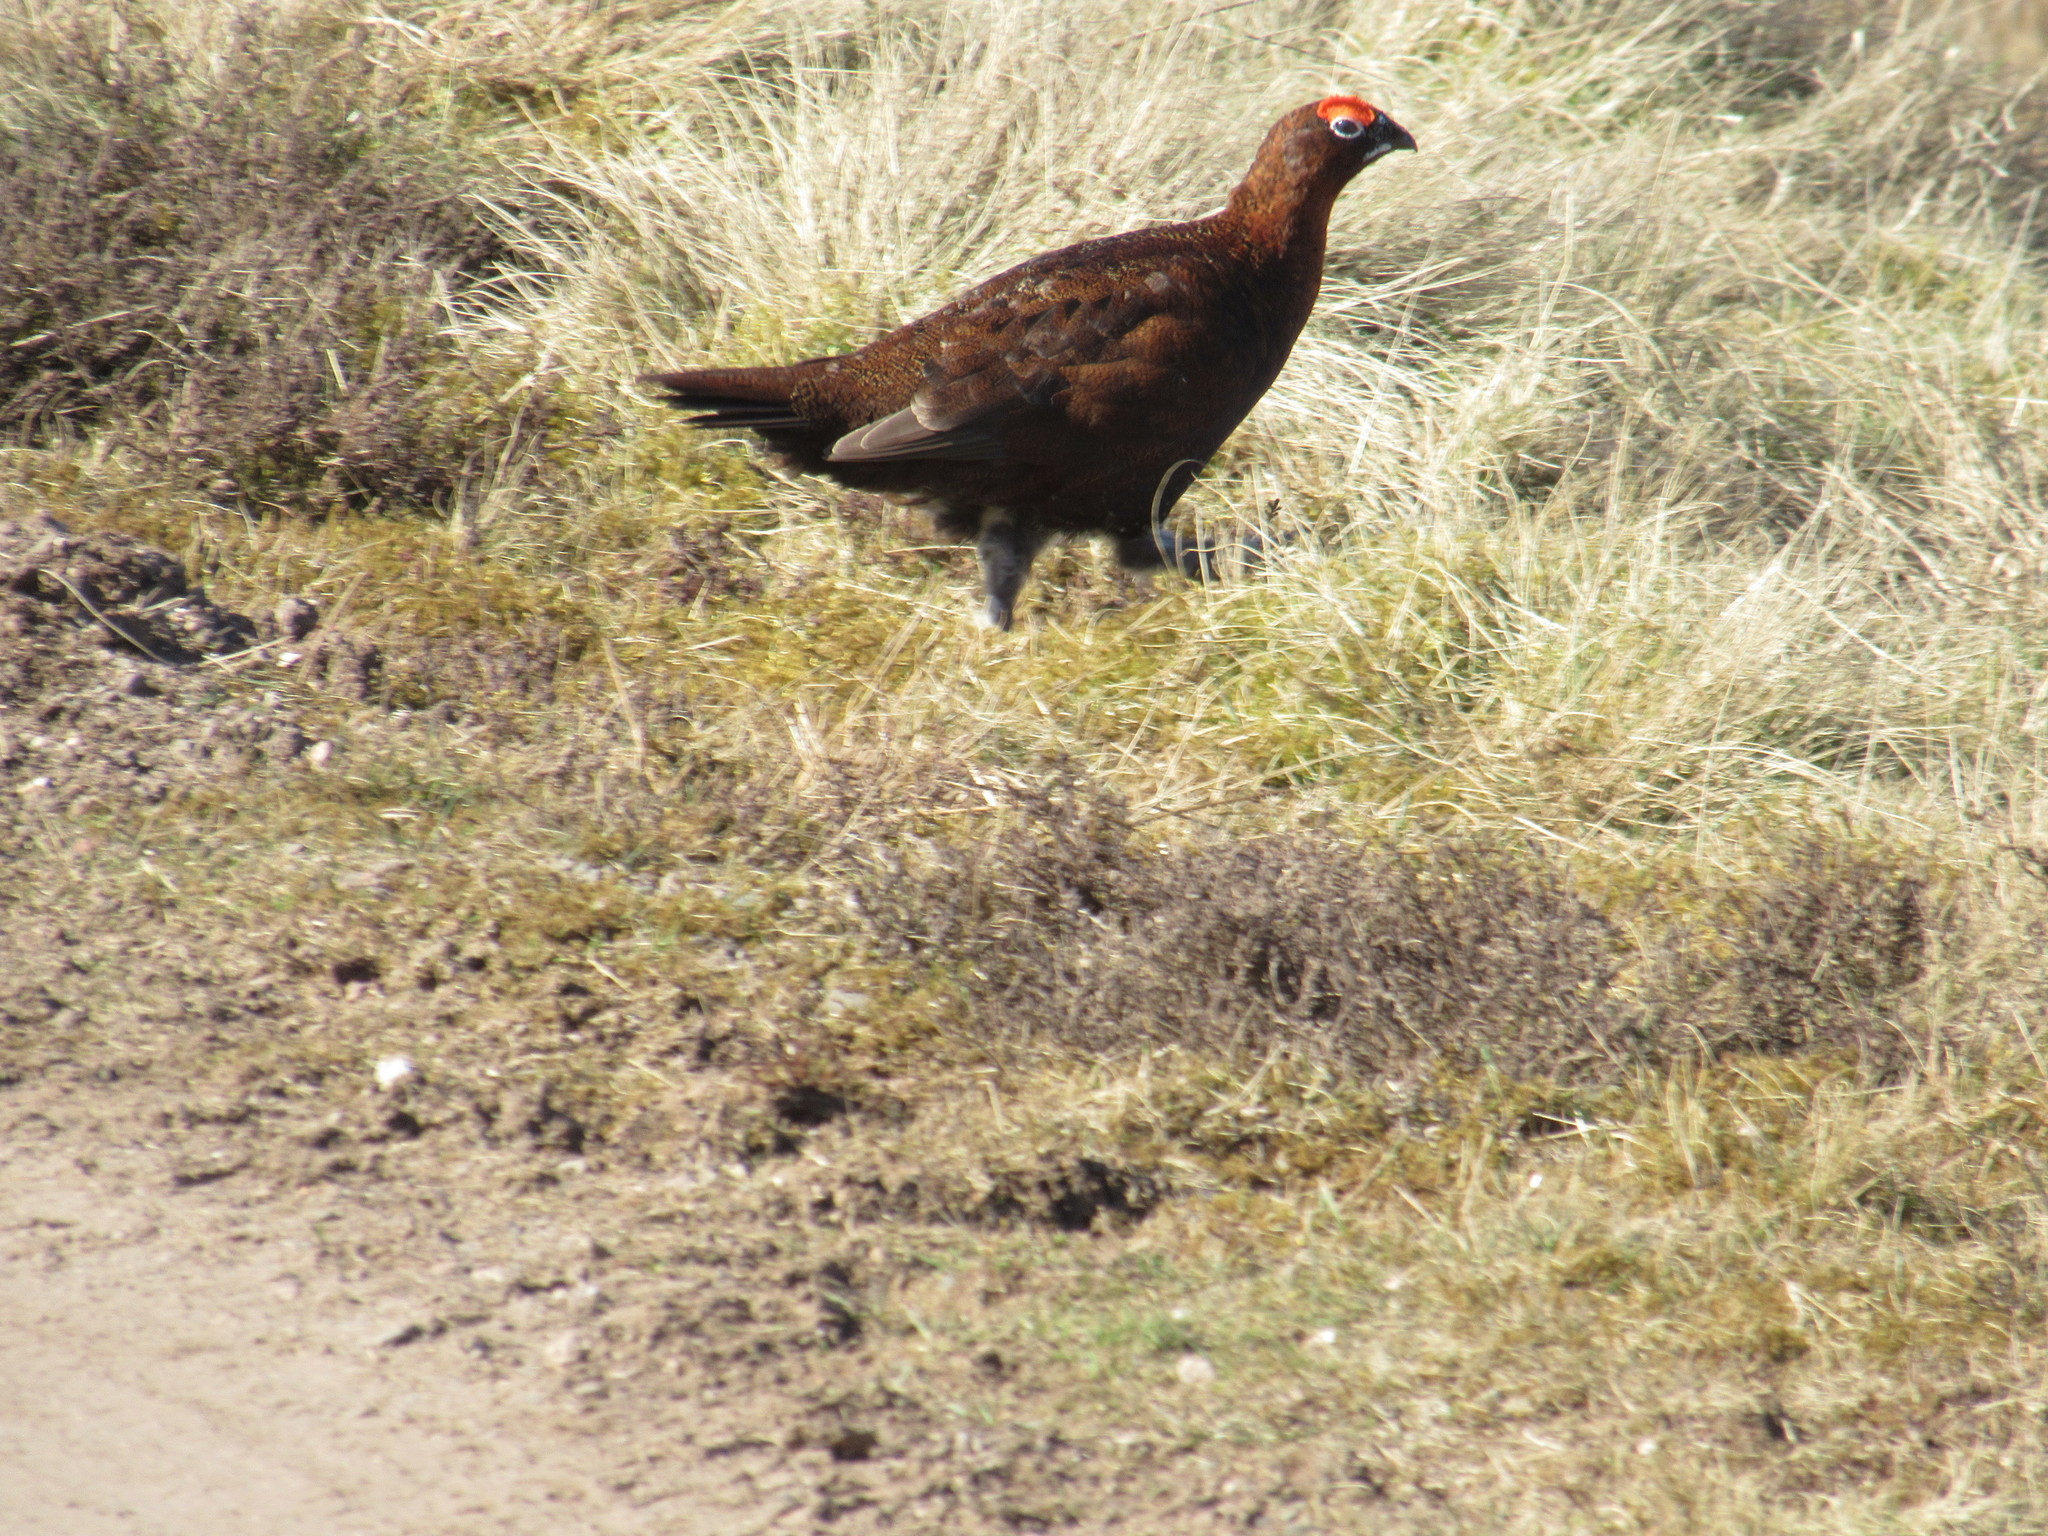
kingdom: Animalia
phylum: Chordata
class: Aves
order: Galliformes
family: Phasianidae
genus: Lagopus
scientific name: Lagopus lagopus
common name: Willow ptarmigan
